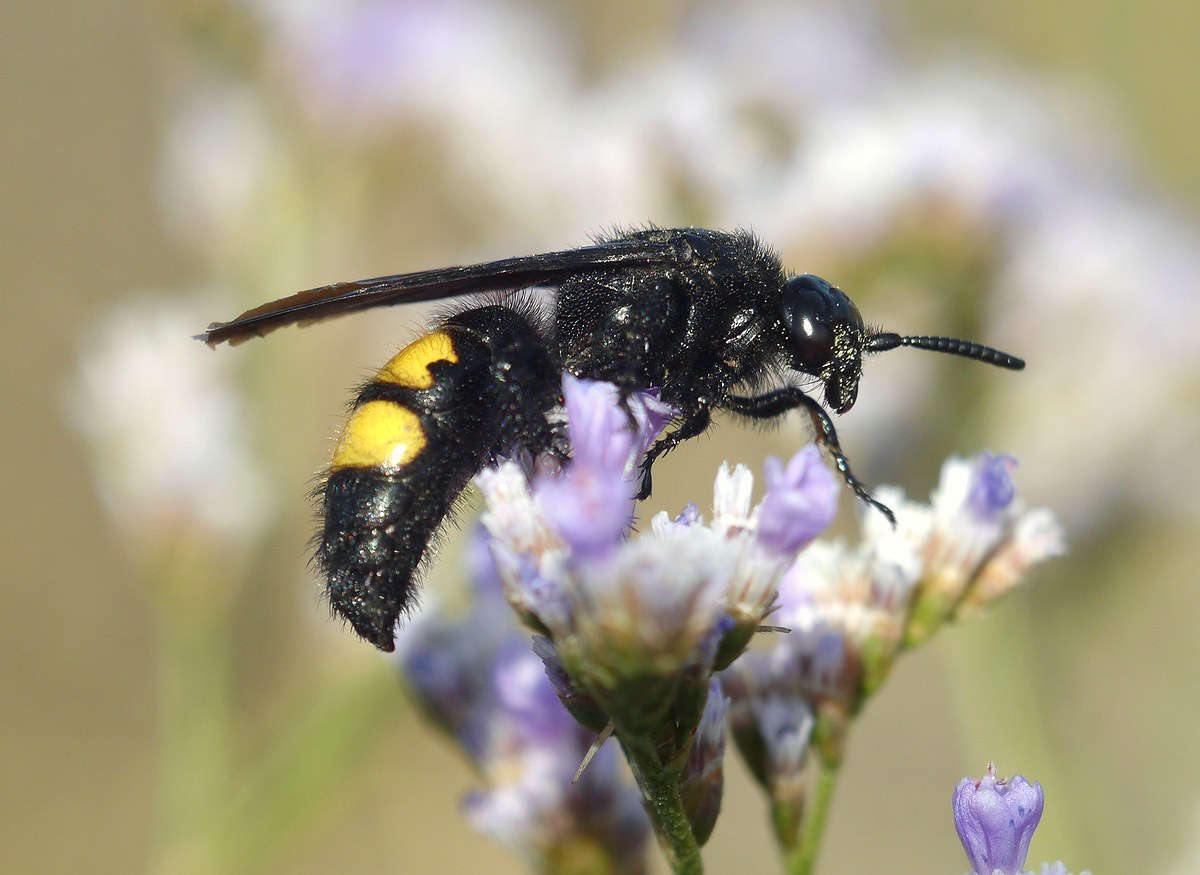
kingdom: Animalia
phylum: Arthropoda
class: Insecta
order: Hymenoptera
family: Scoliidae
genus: Scolia
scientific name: Scolia hirta
